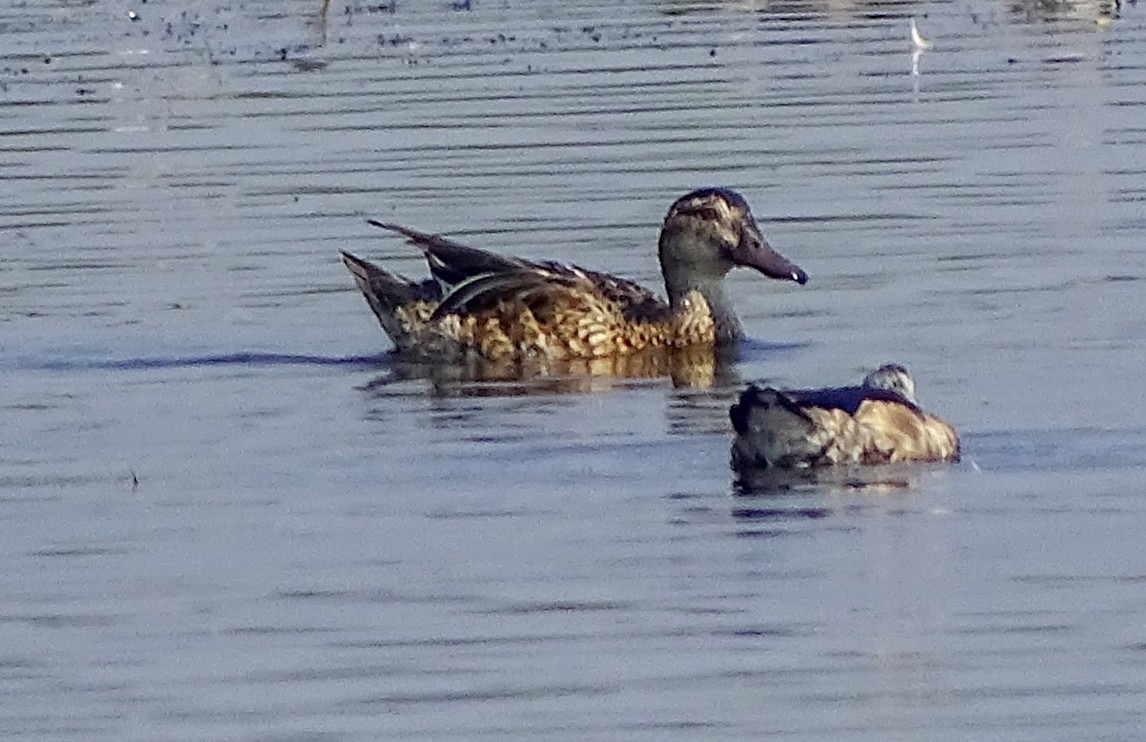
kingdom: Animalia
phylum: Chordata
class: Aves
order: Anseriformes
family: Anatidae
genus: Spatula
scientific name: Spatula querquedula
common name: Garganey
